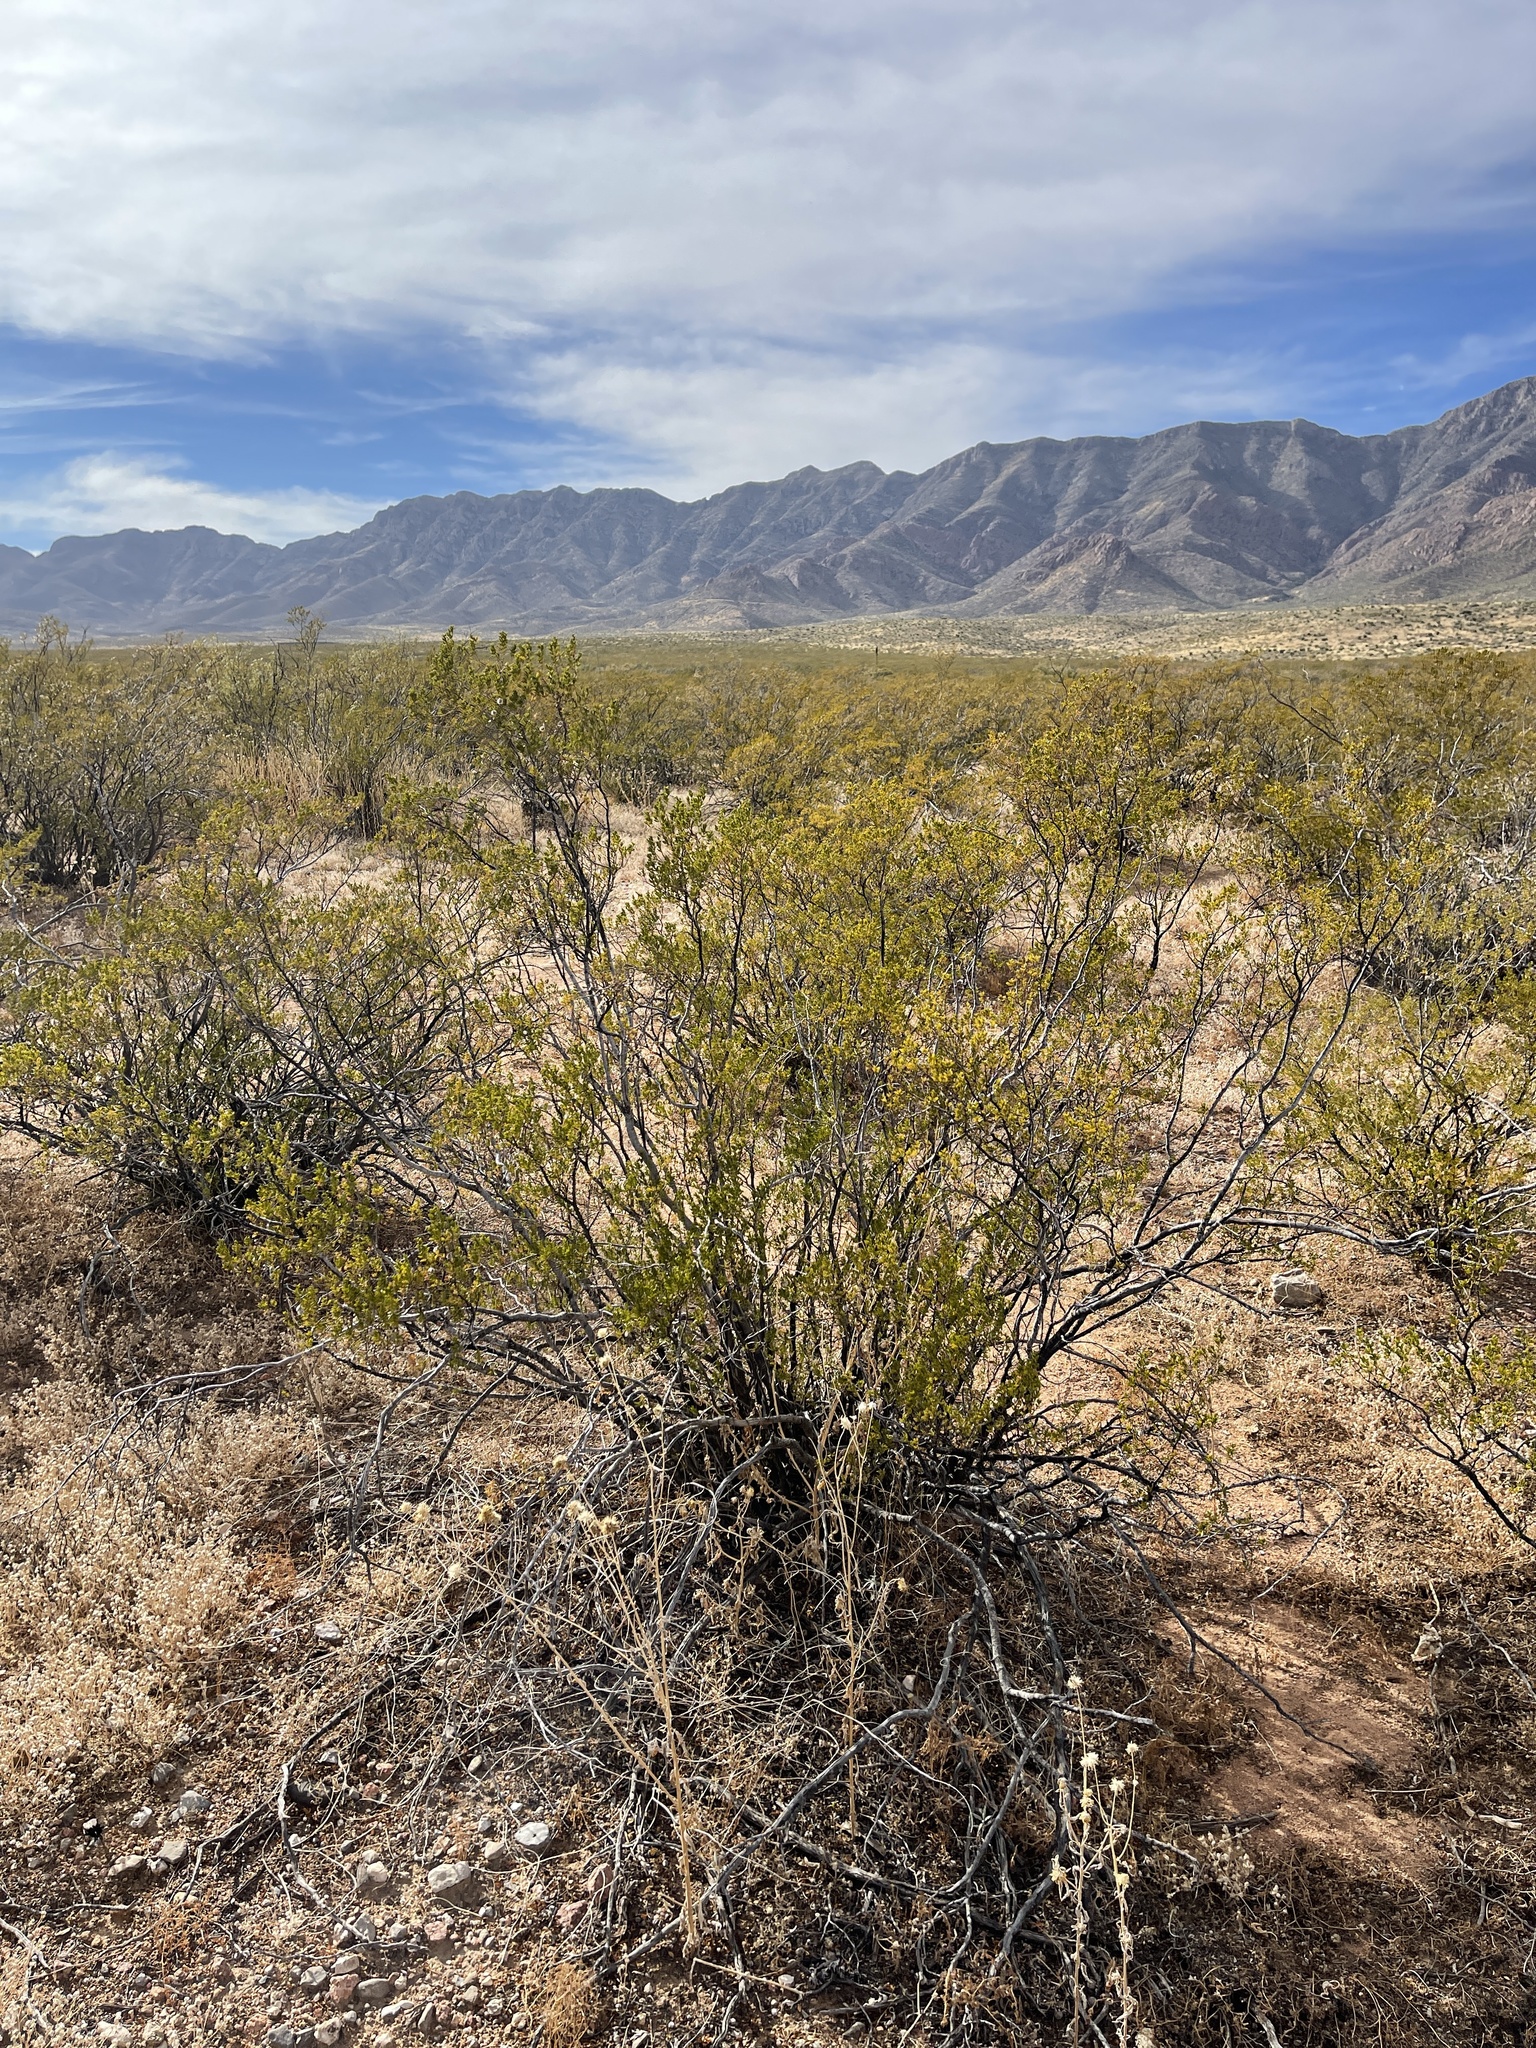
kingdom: Plantae
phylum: Tracheophyta
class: Magnoliopsida
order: Zygophyllales
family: Zygophyllaceae
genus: Larrea
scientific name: Larrea tridentata
